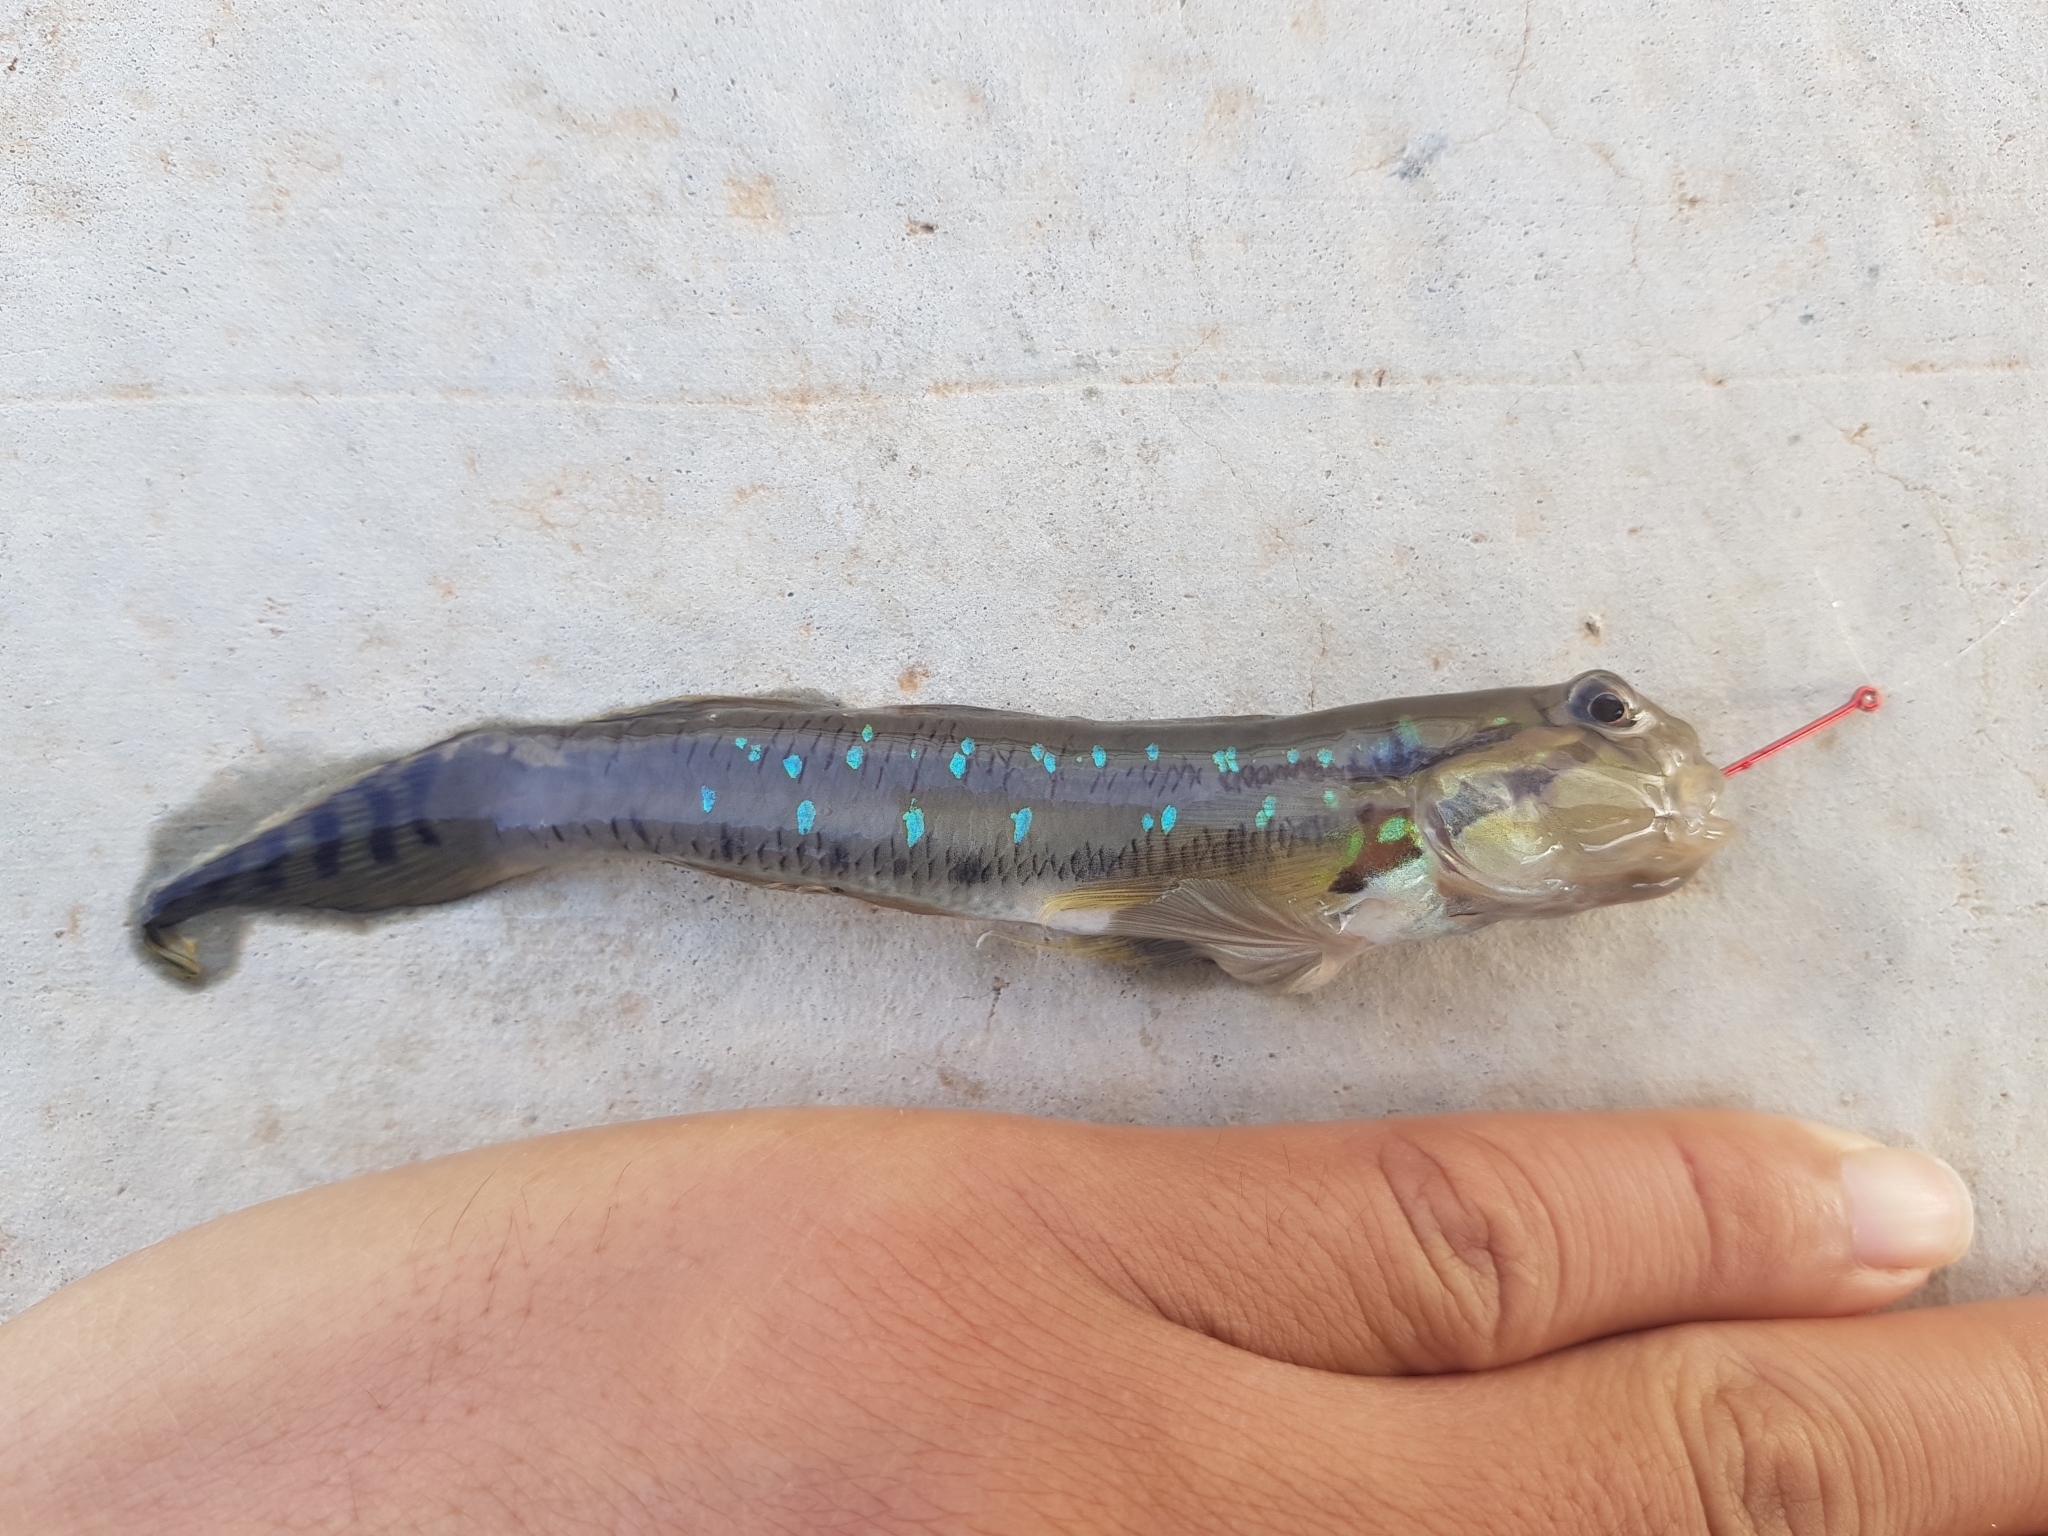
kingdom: Animalia
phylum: Chordata
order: Perciformes
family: Gobiidae
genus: Arenigobius
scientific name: Arenigobius bifrenatus
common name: Bridled goby
